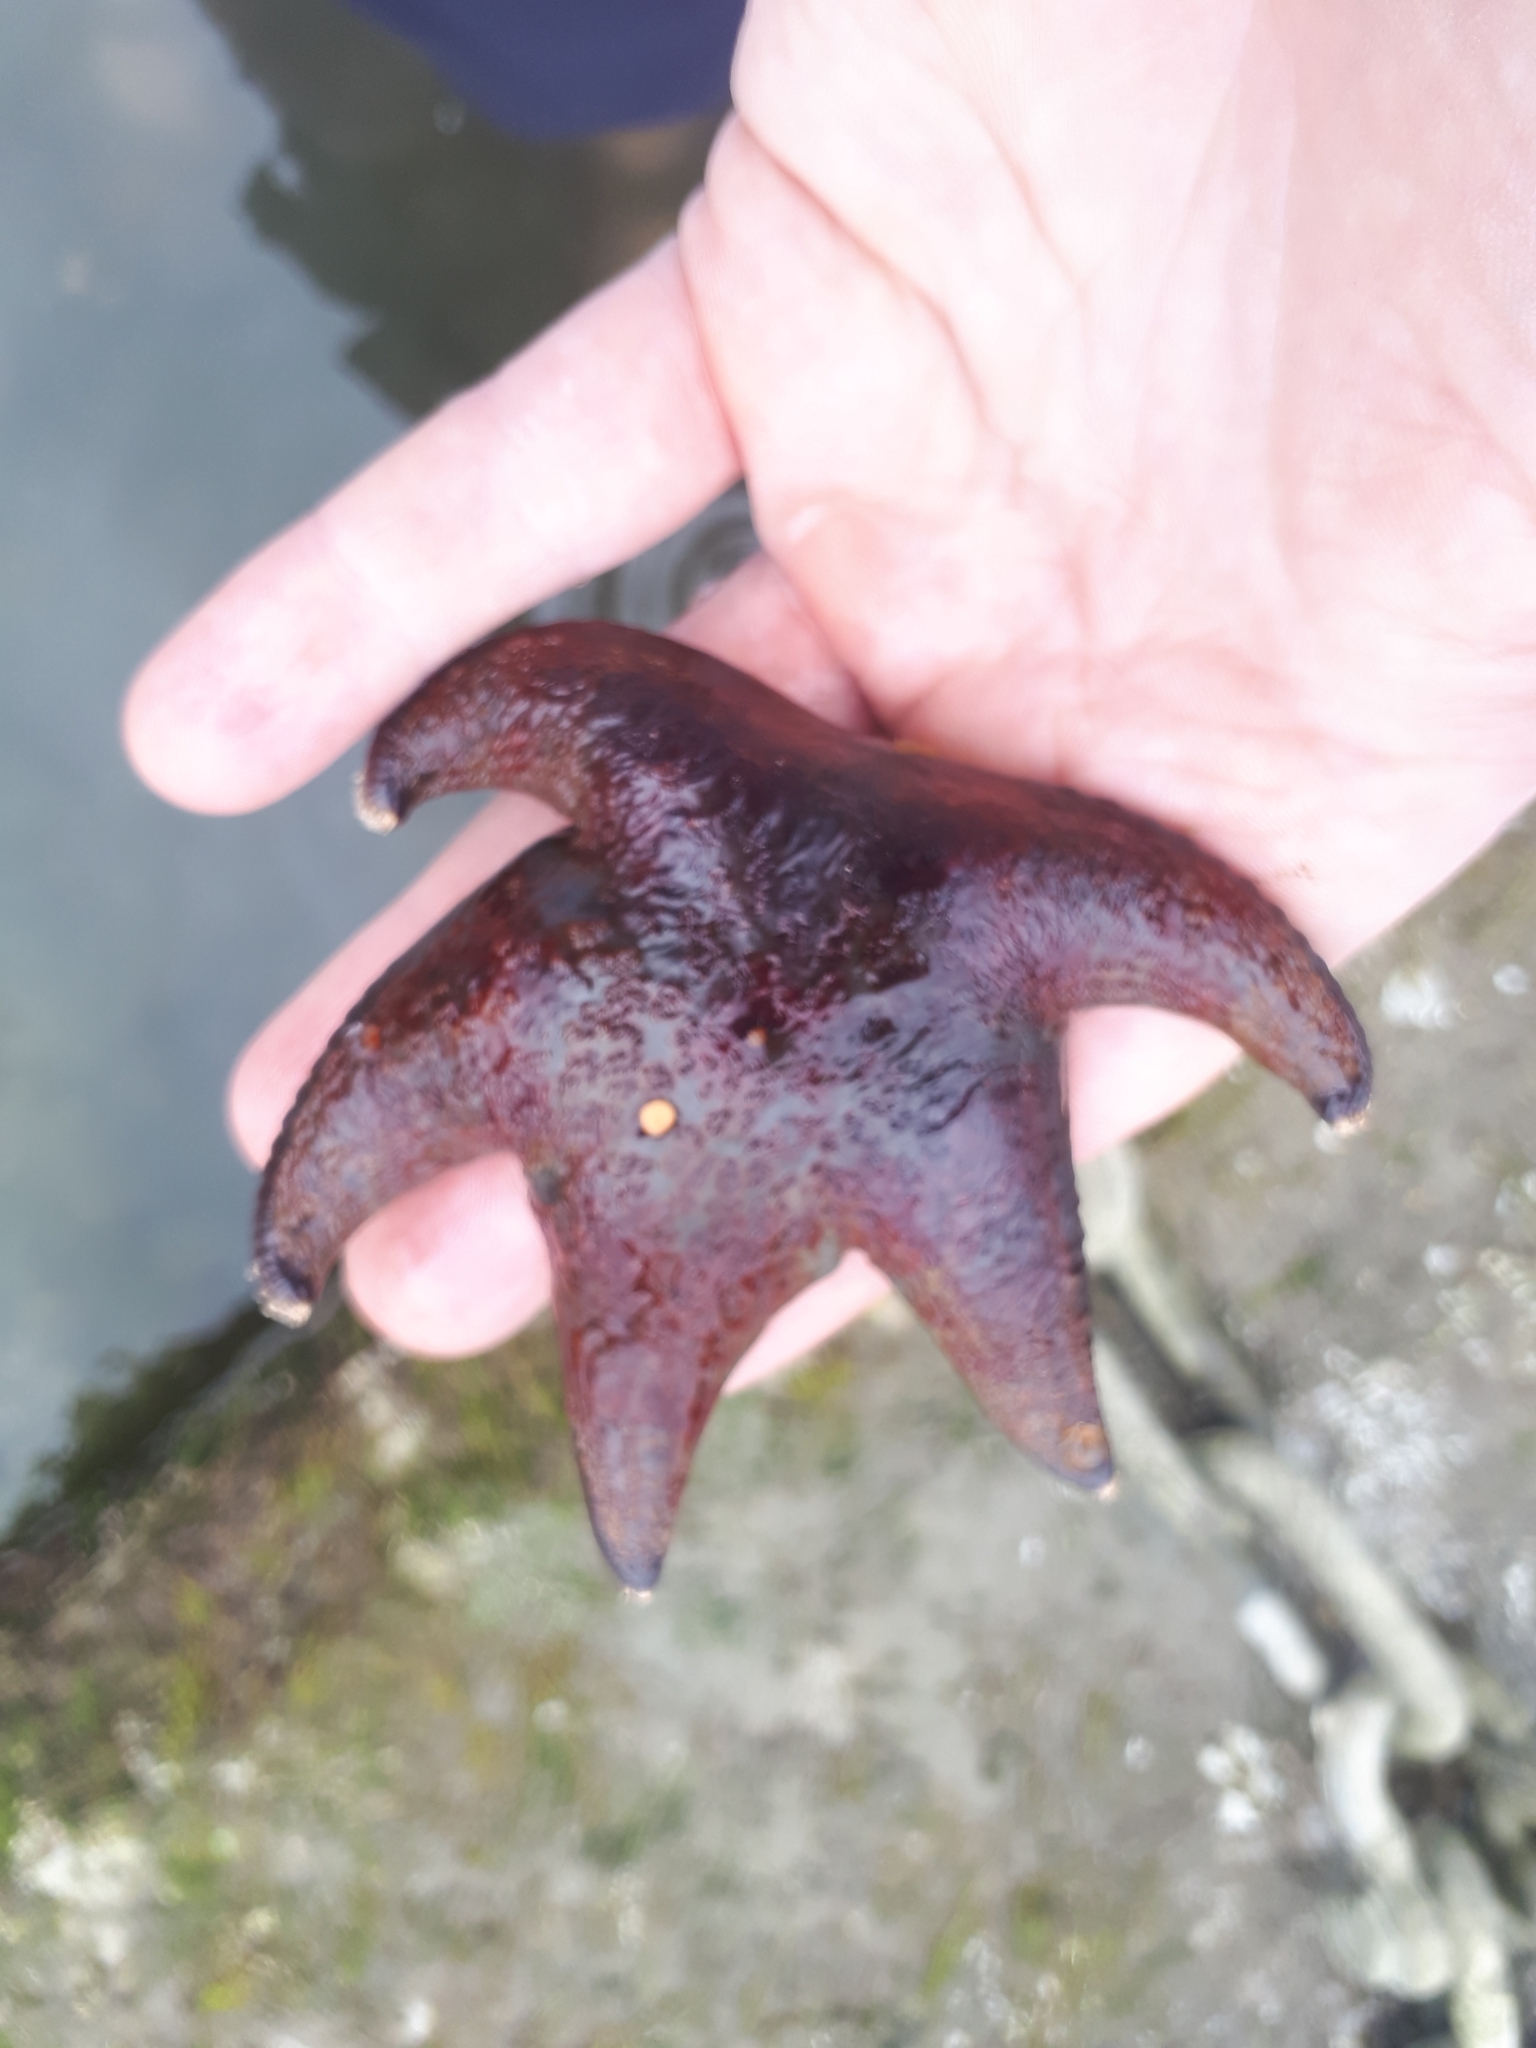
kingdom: Animalia
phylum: Echinodermata
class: Asteroidea
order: Valvatida
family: Asteropseidae
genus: Dermasterias
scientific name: Dermasterias imbricata
